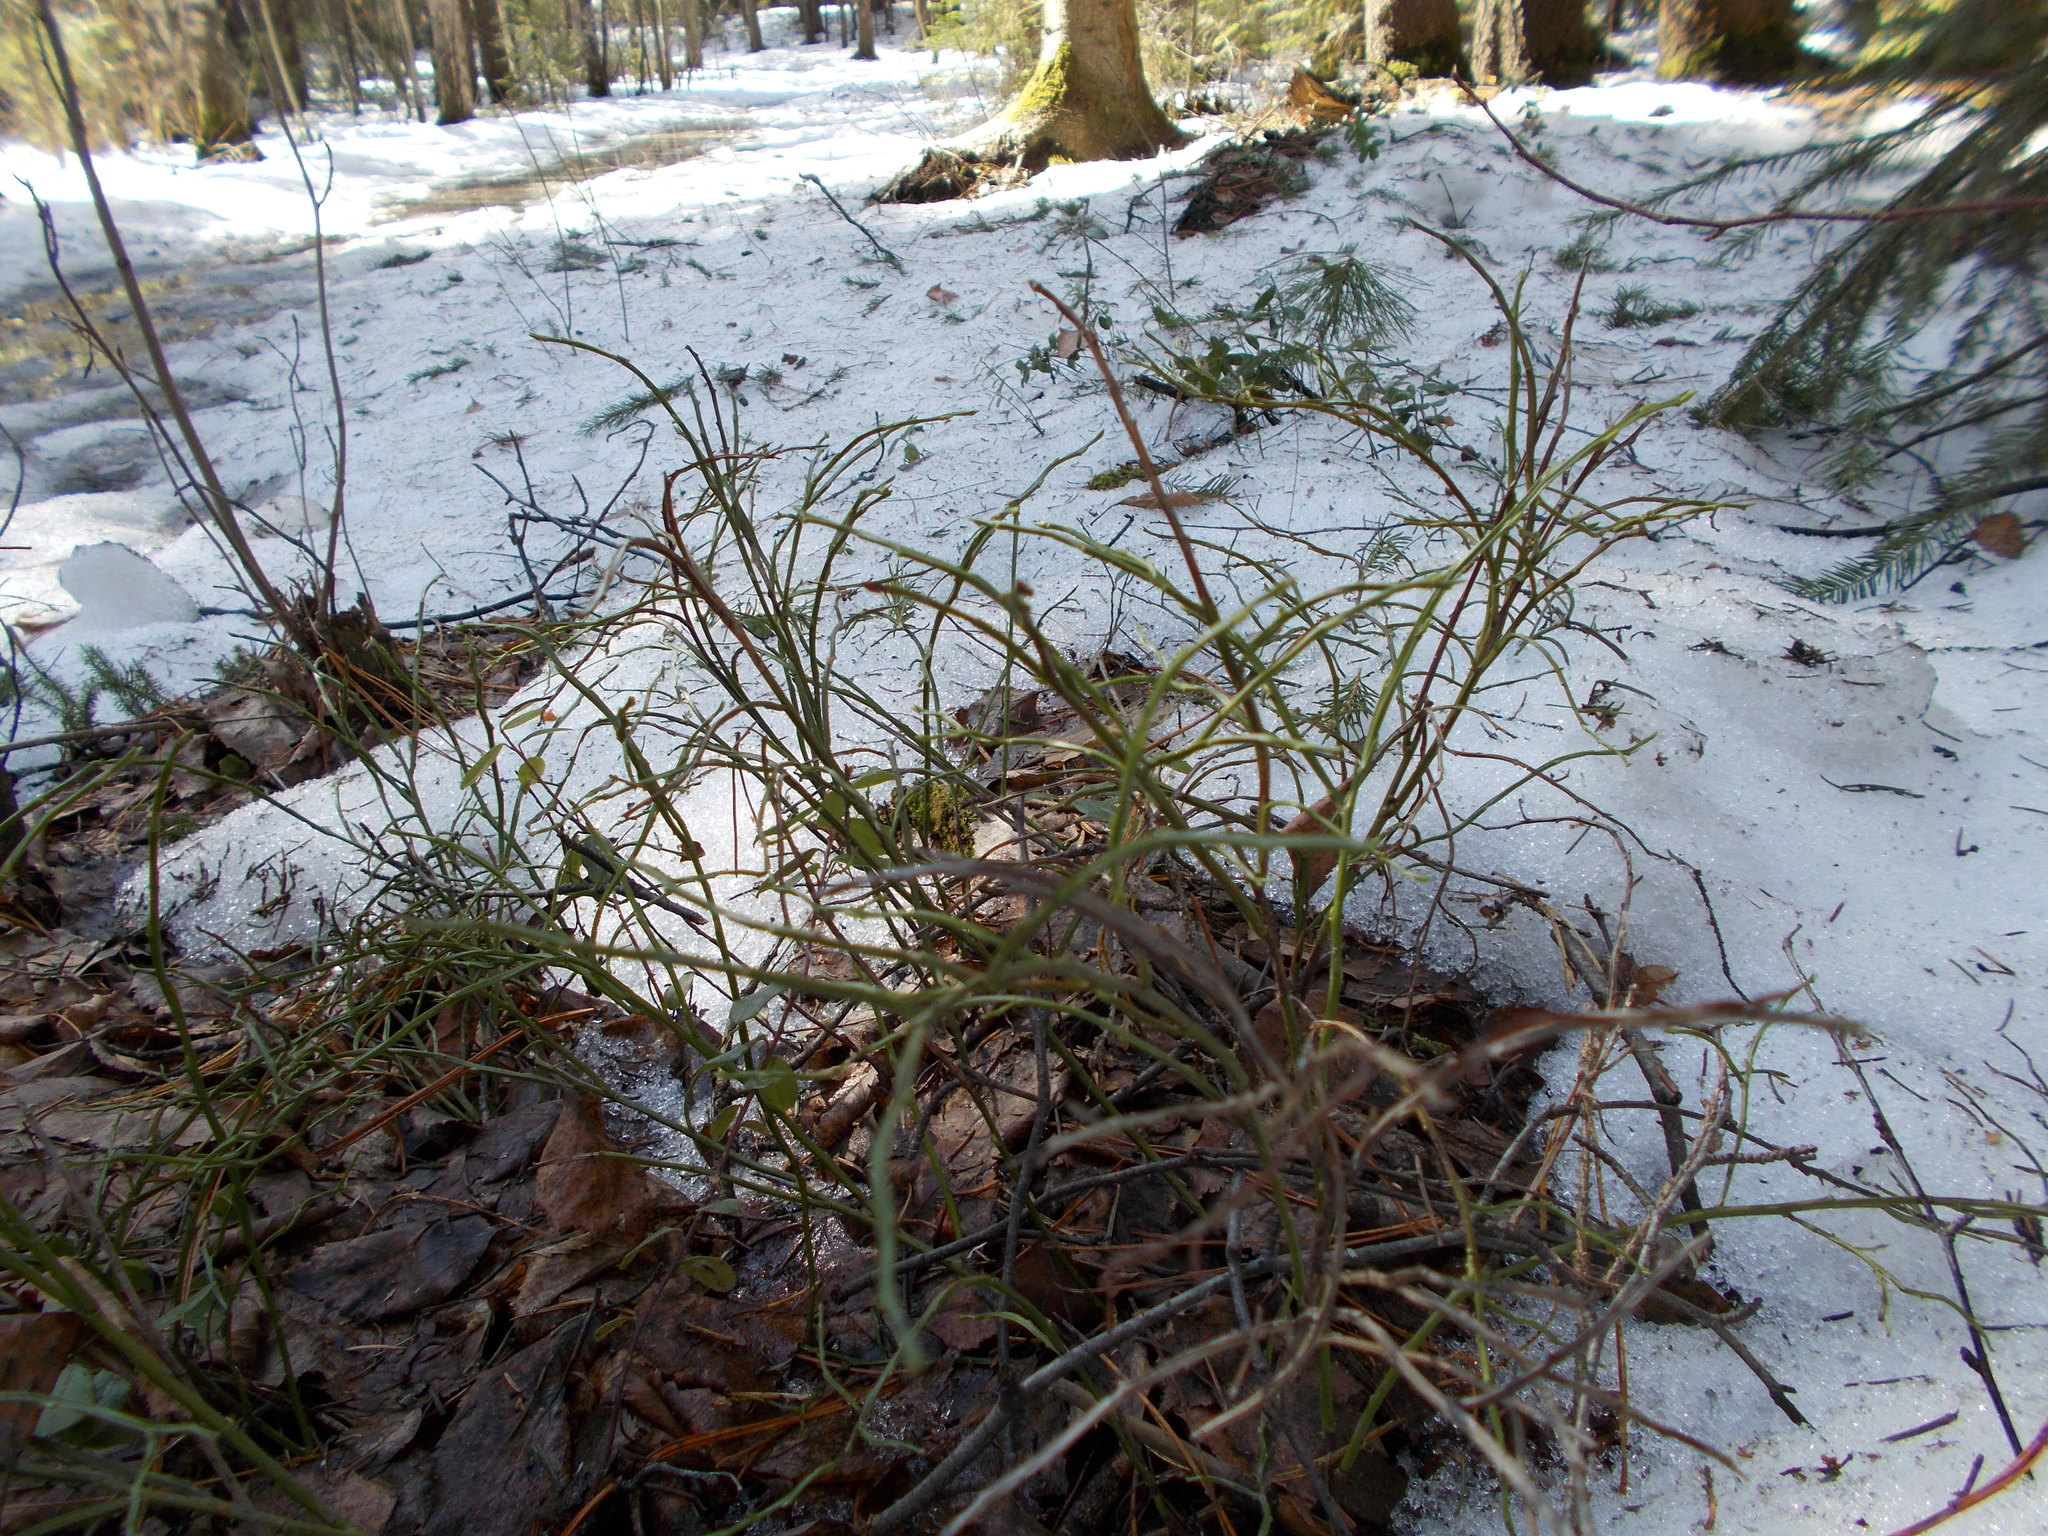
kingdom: Plantae
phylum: Tracheophyta
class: Magnoliopsida
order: Ericales
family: Ericaceae
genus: Vaccinium
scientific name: Vaccinium myrtillus
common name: Bilberry
